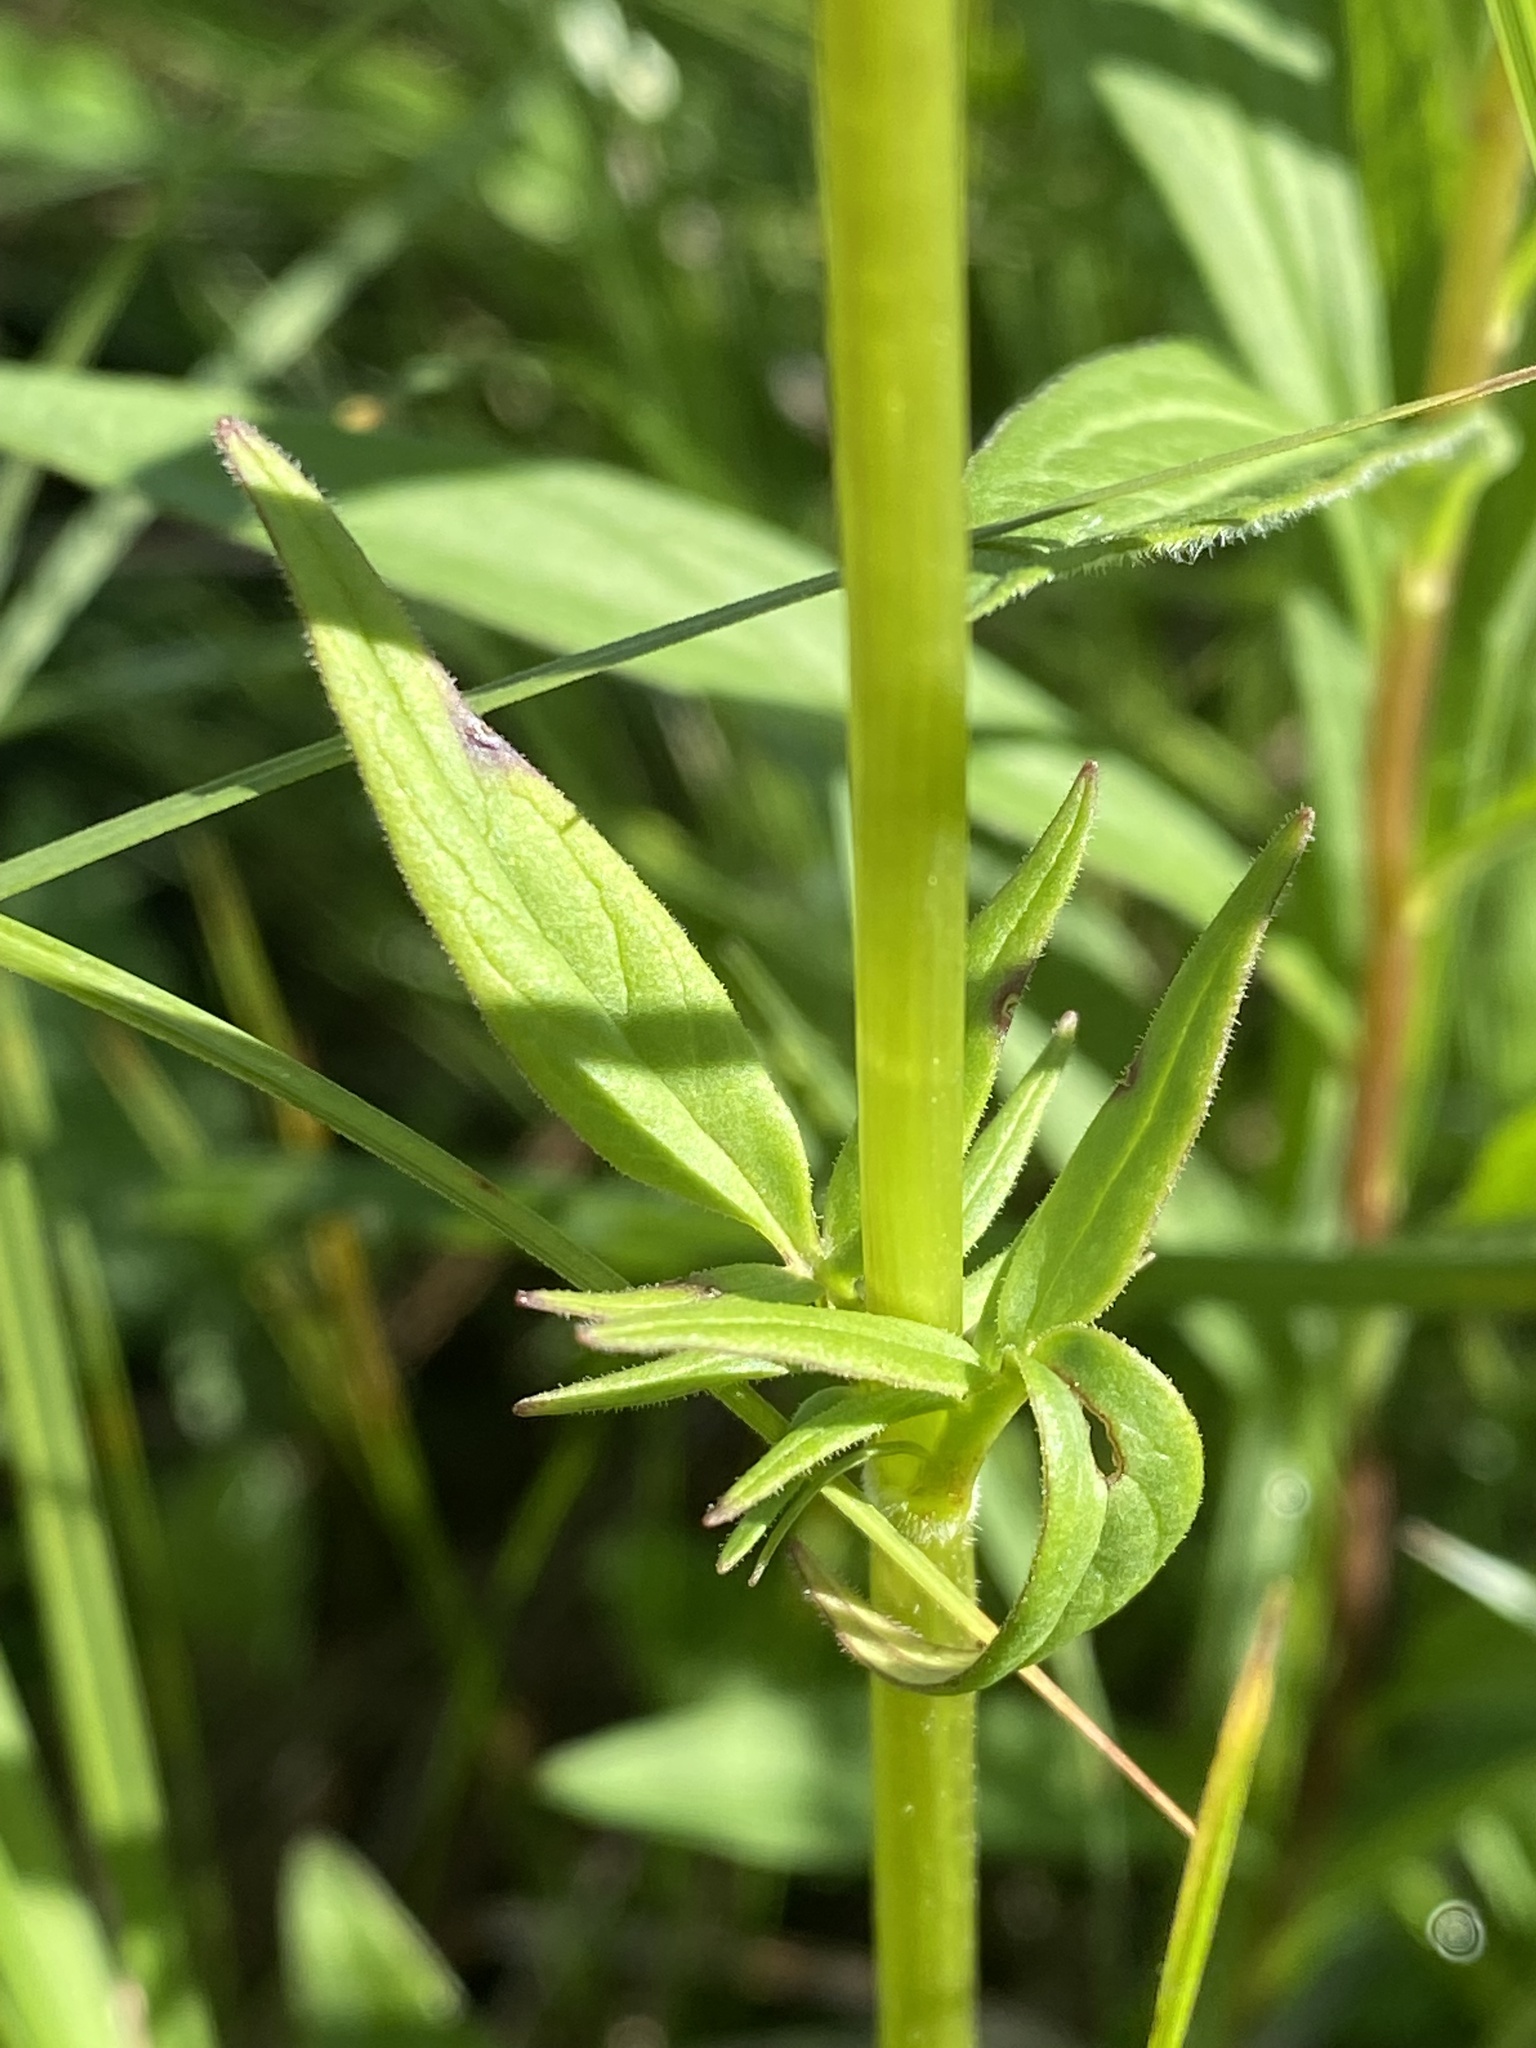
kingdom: Plantae
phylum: Tracheophyta
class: Magnoliopsida
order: Dipsacales
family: Caprifoliaceae
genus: Valeriana
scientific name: Valeriana uliginosa
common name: Marsh valerian
